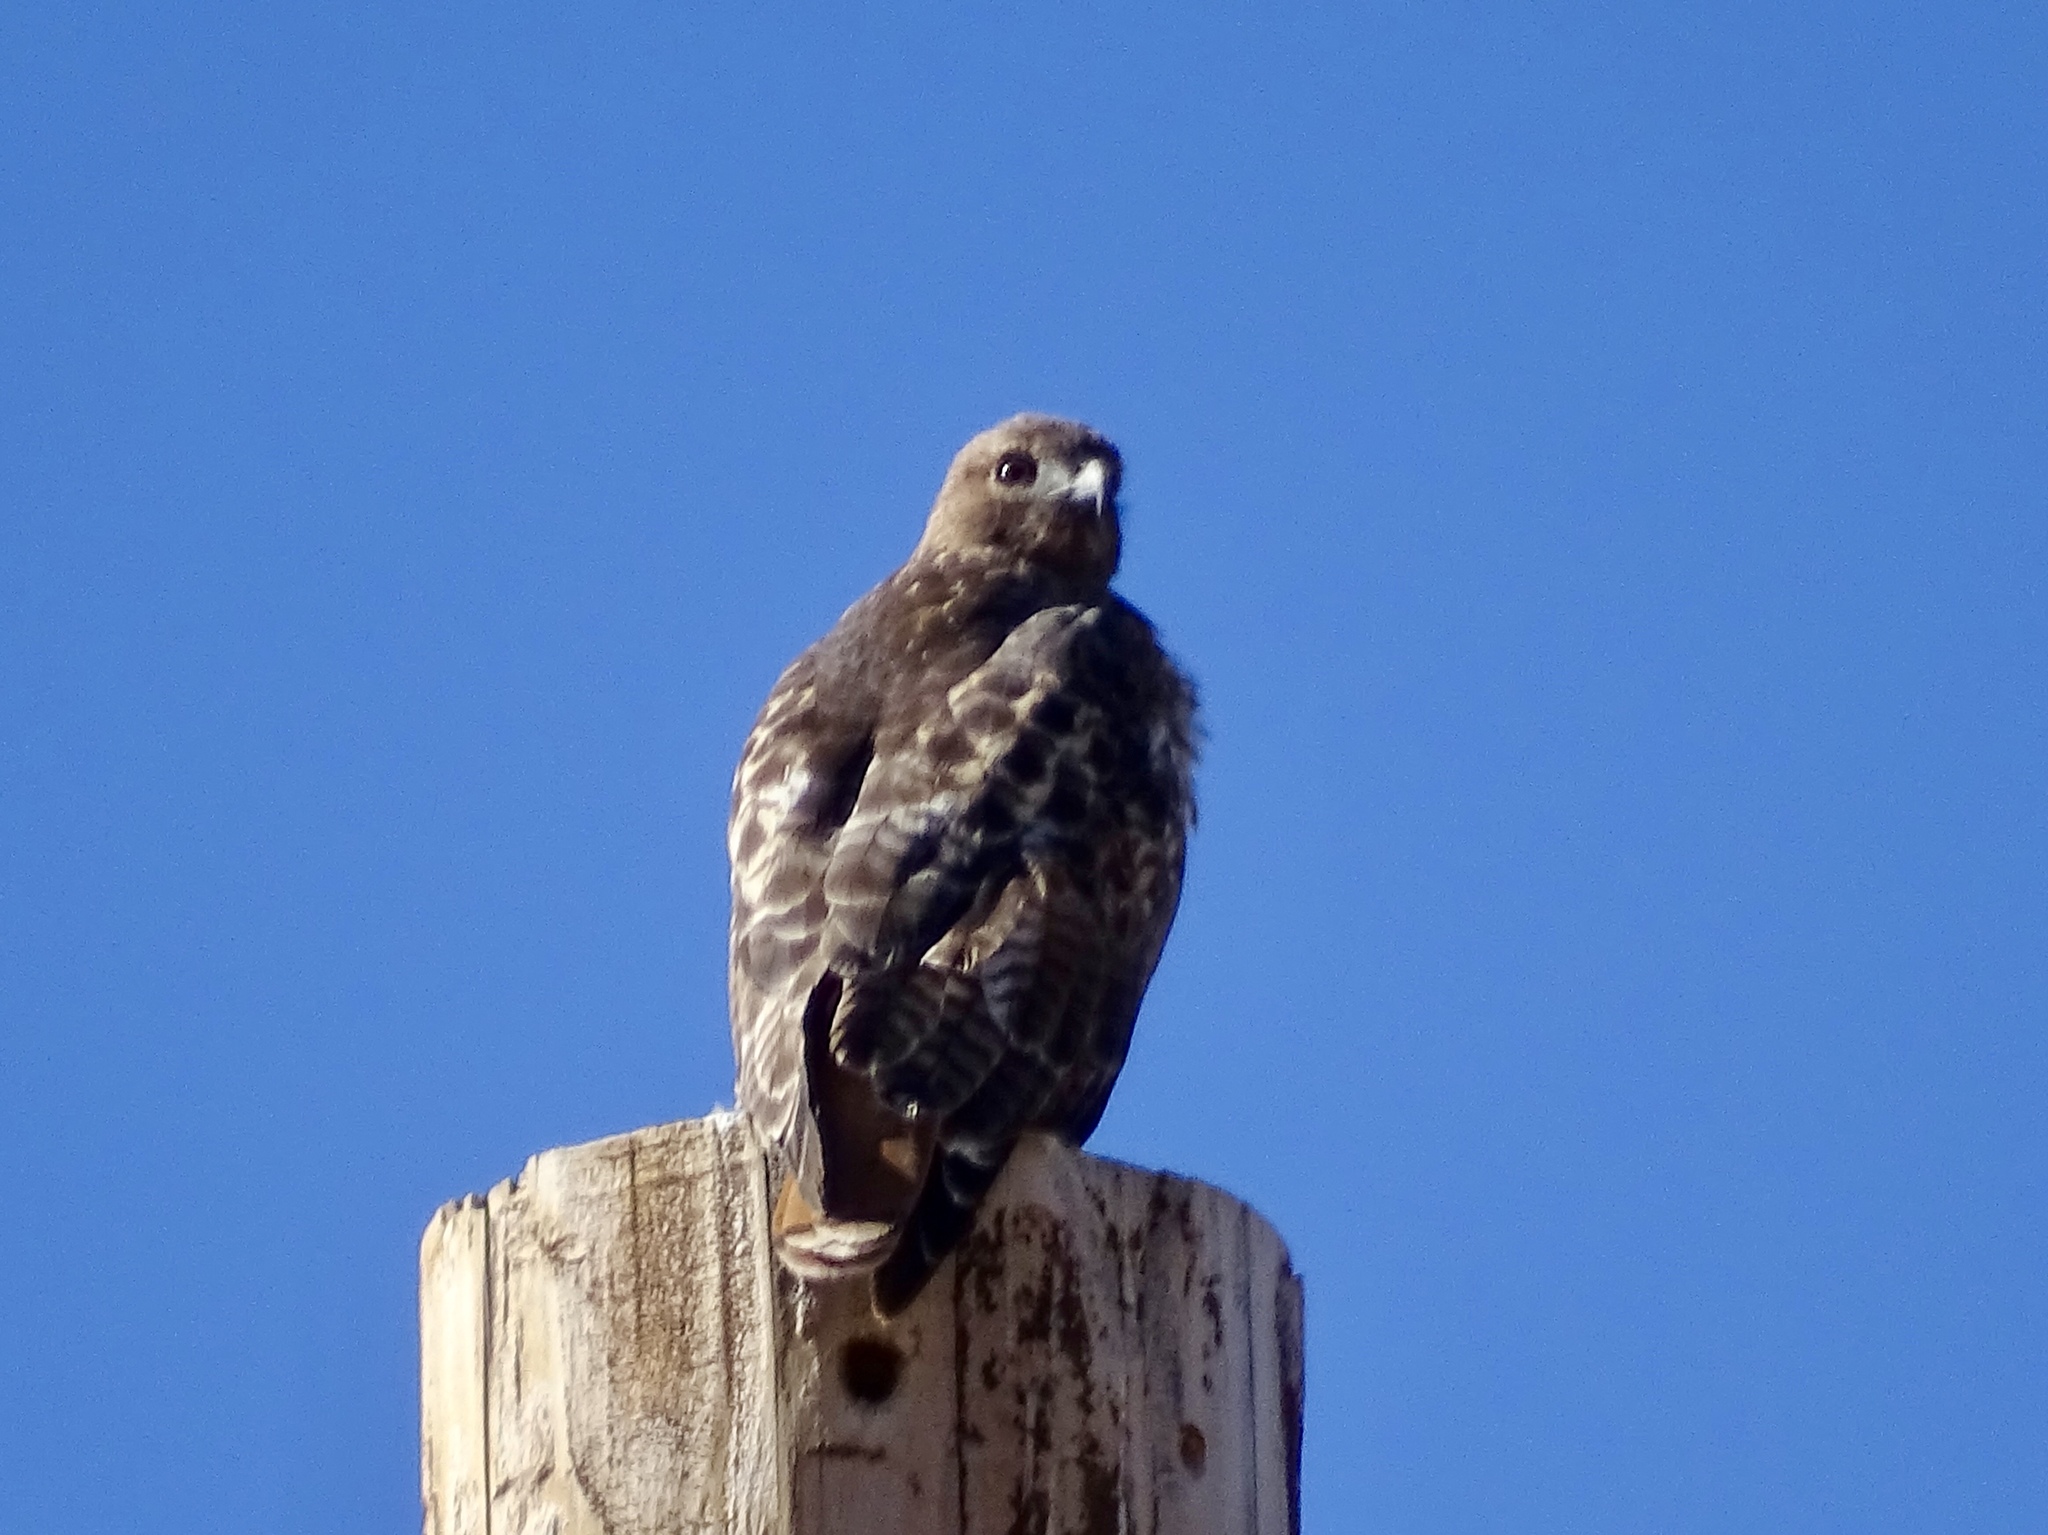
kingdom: Animalia
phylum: Chordata
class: Aves
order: Accipitriformes
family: Accipitridae
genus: Buteo
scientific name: Buteo jamaicensis
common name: Red-tailed hawk
